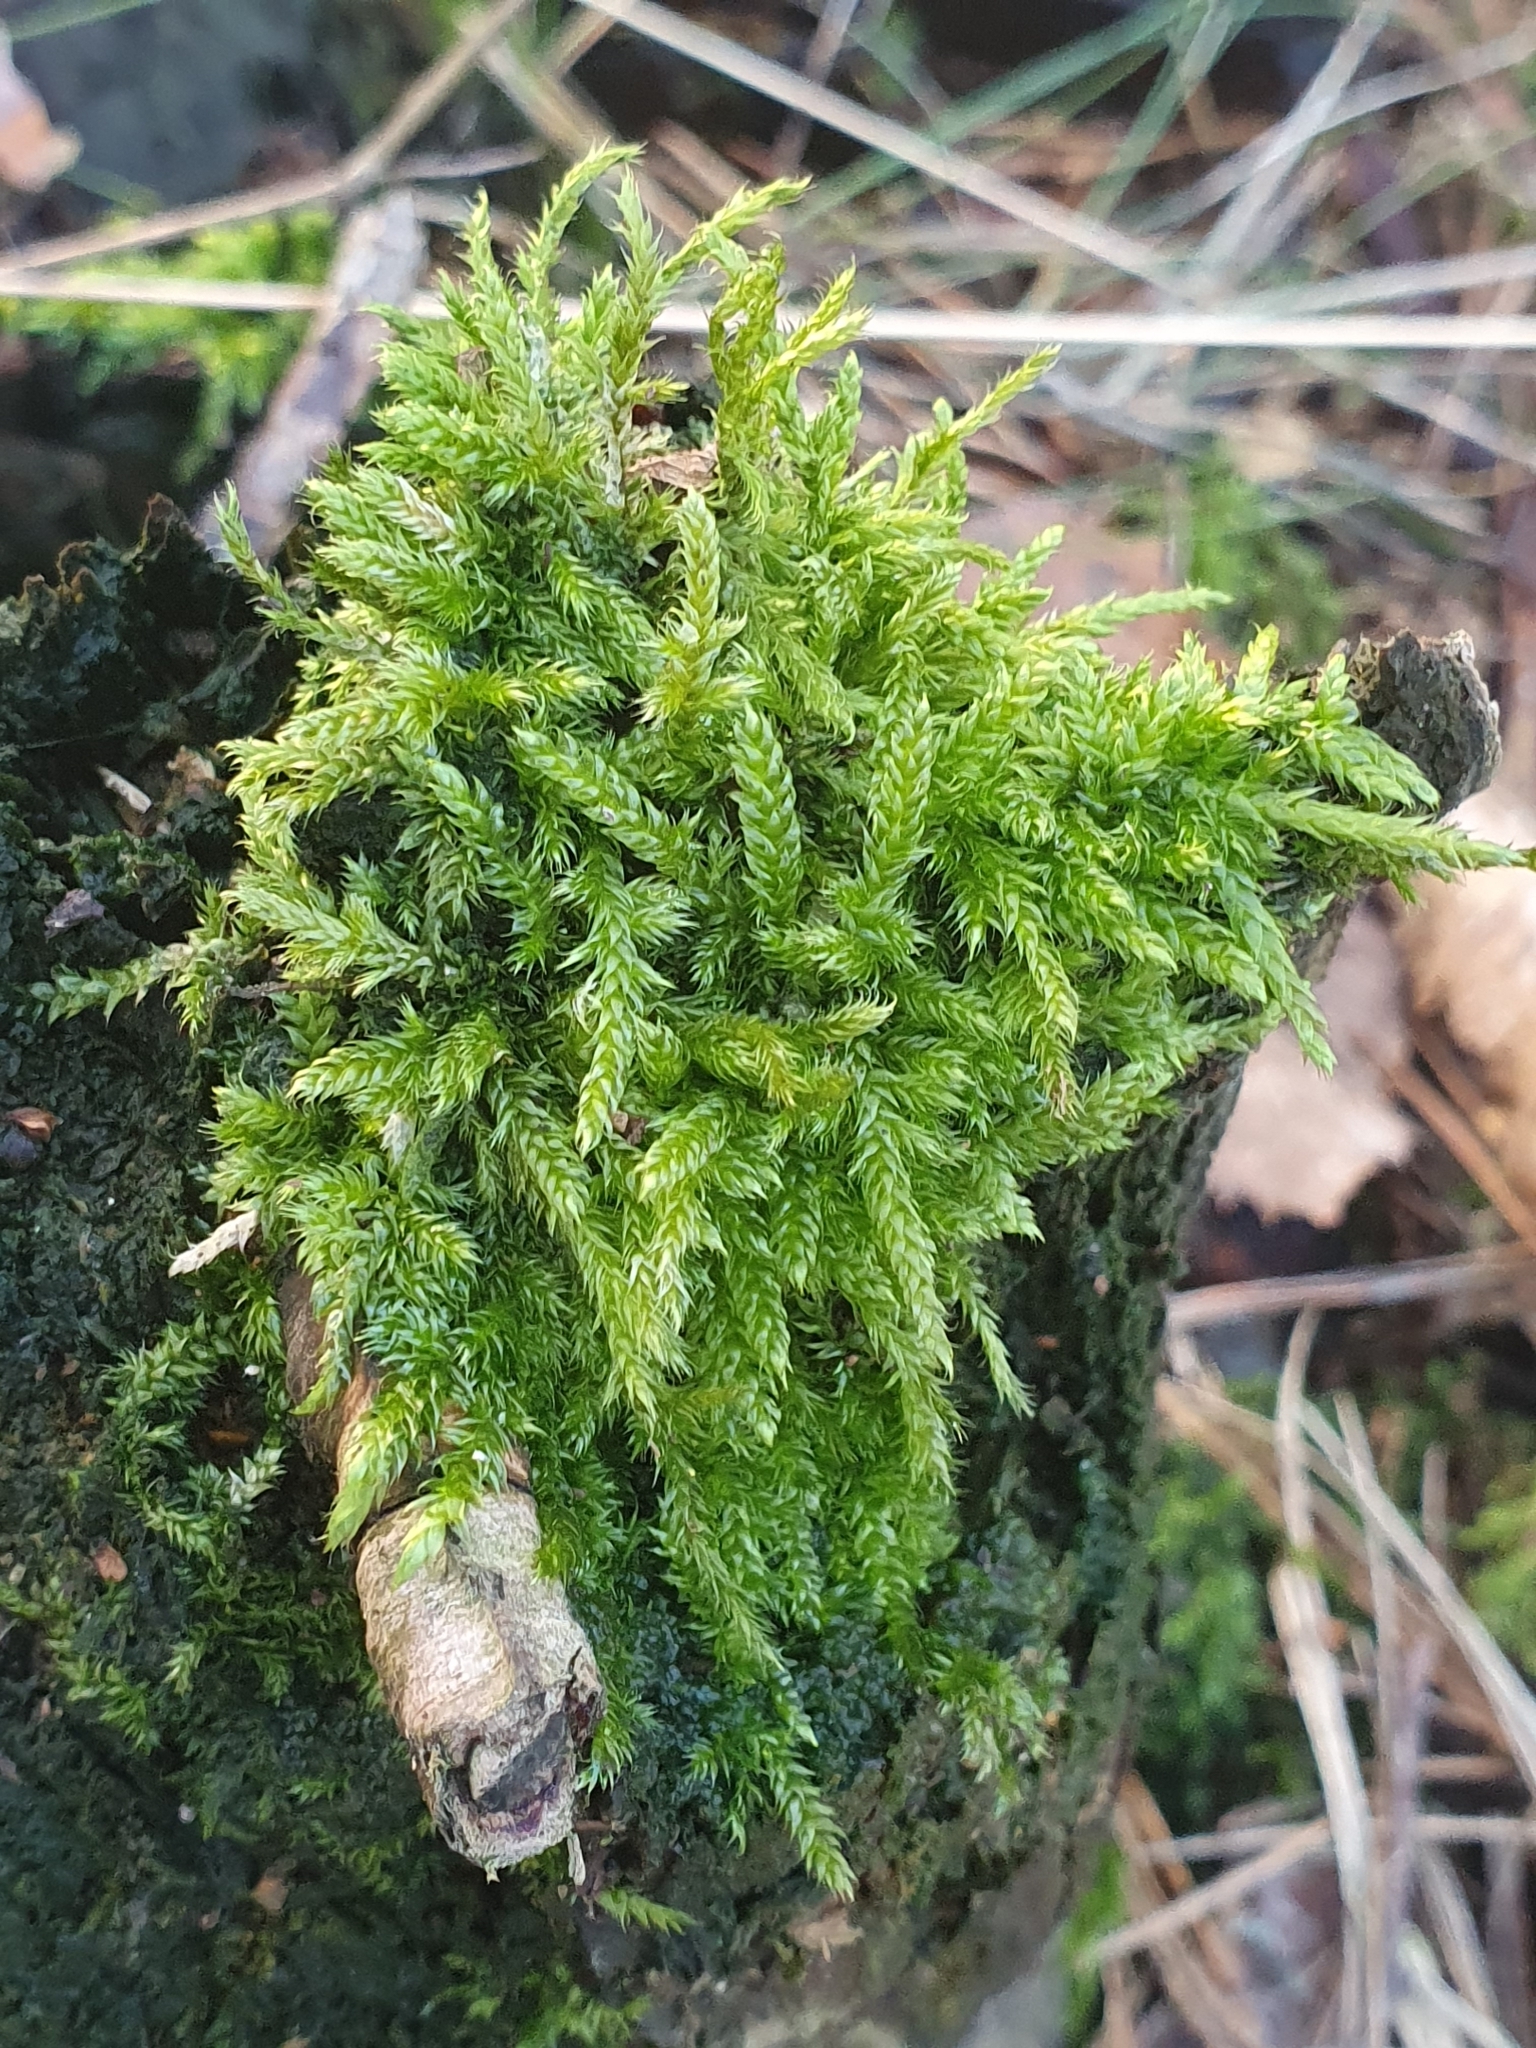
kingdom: Plantae
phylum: Bryophyta
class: Bryopsida
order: Hypnales
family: Hypnaceae
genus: Hypnum
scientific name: Hypnum cupressiforme
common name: Cypress-leaved plait-moss
